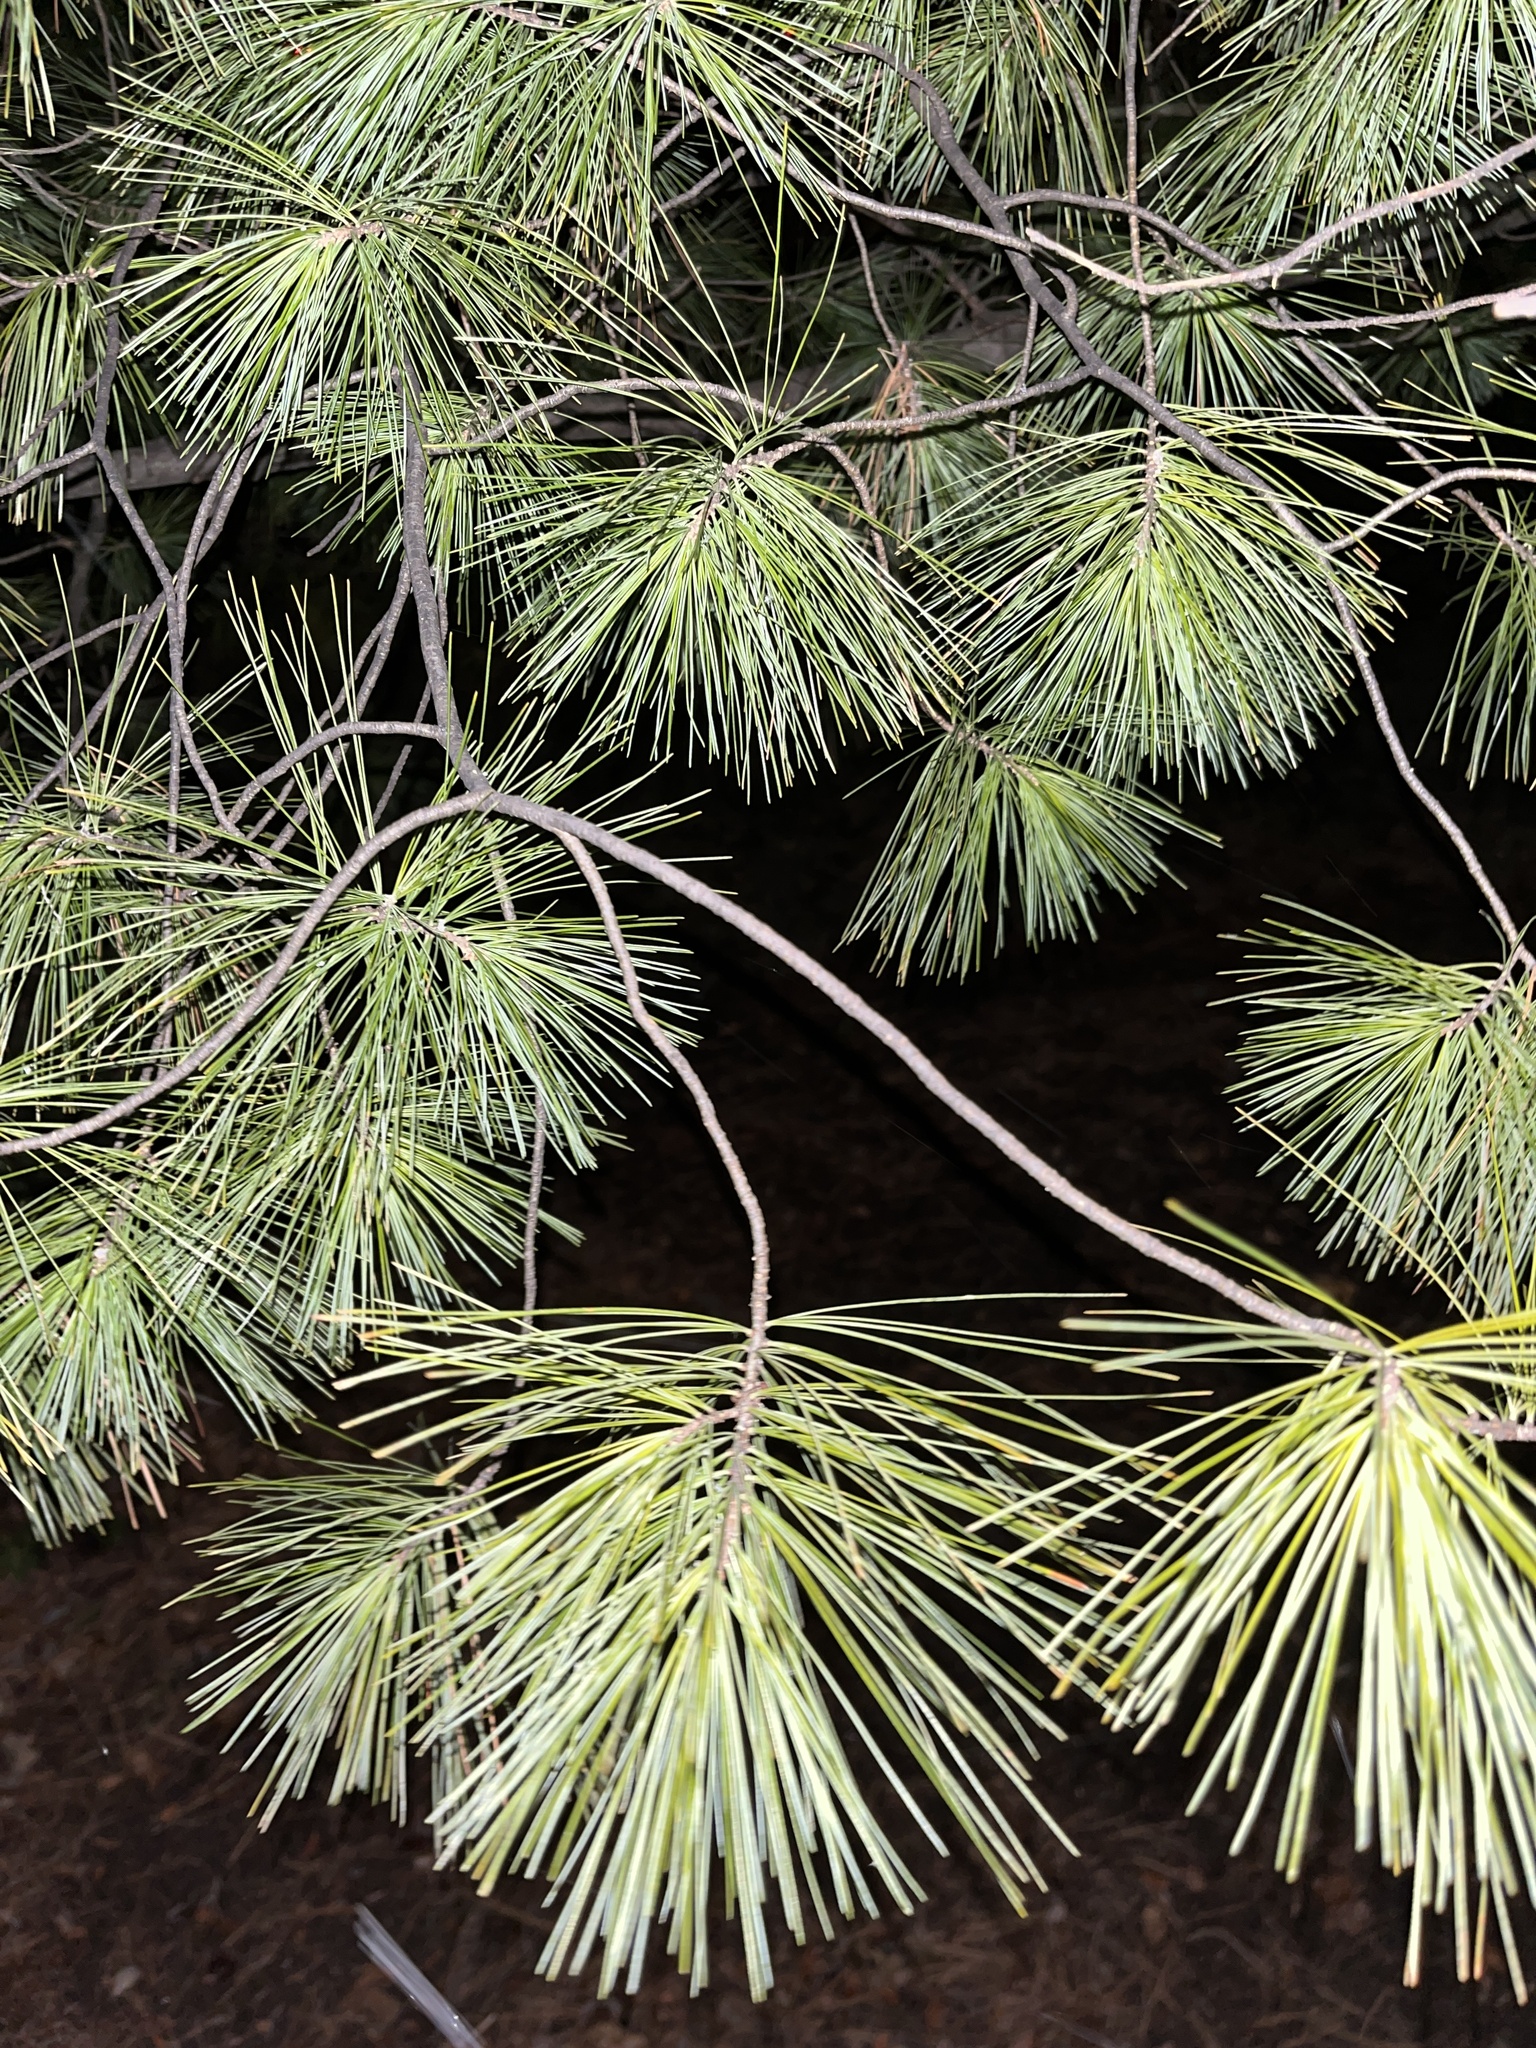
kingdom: Plantae
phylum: Tracheophyta
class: Pinopsida
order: Pinales
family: Pinaceae
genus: Pinus
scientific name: Pinus strobus
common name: Weymouth pine
